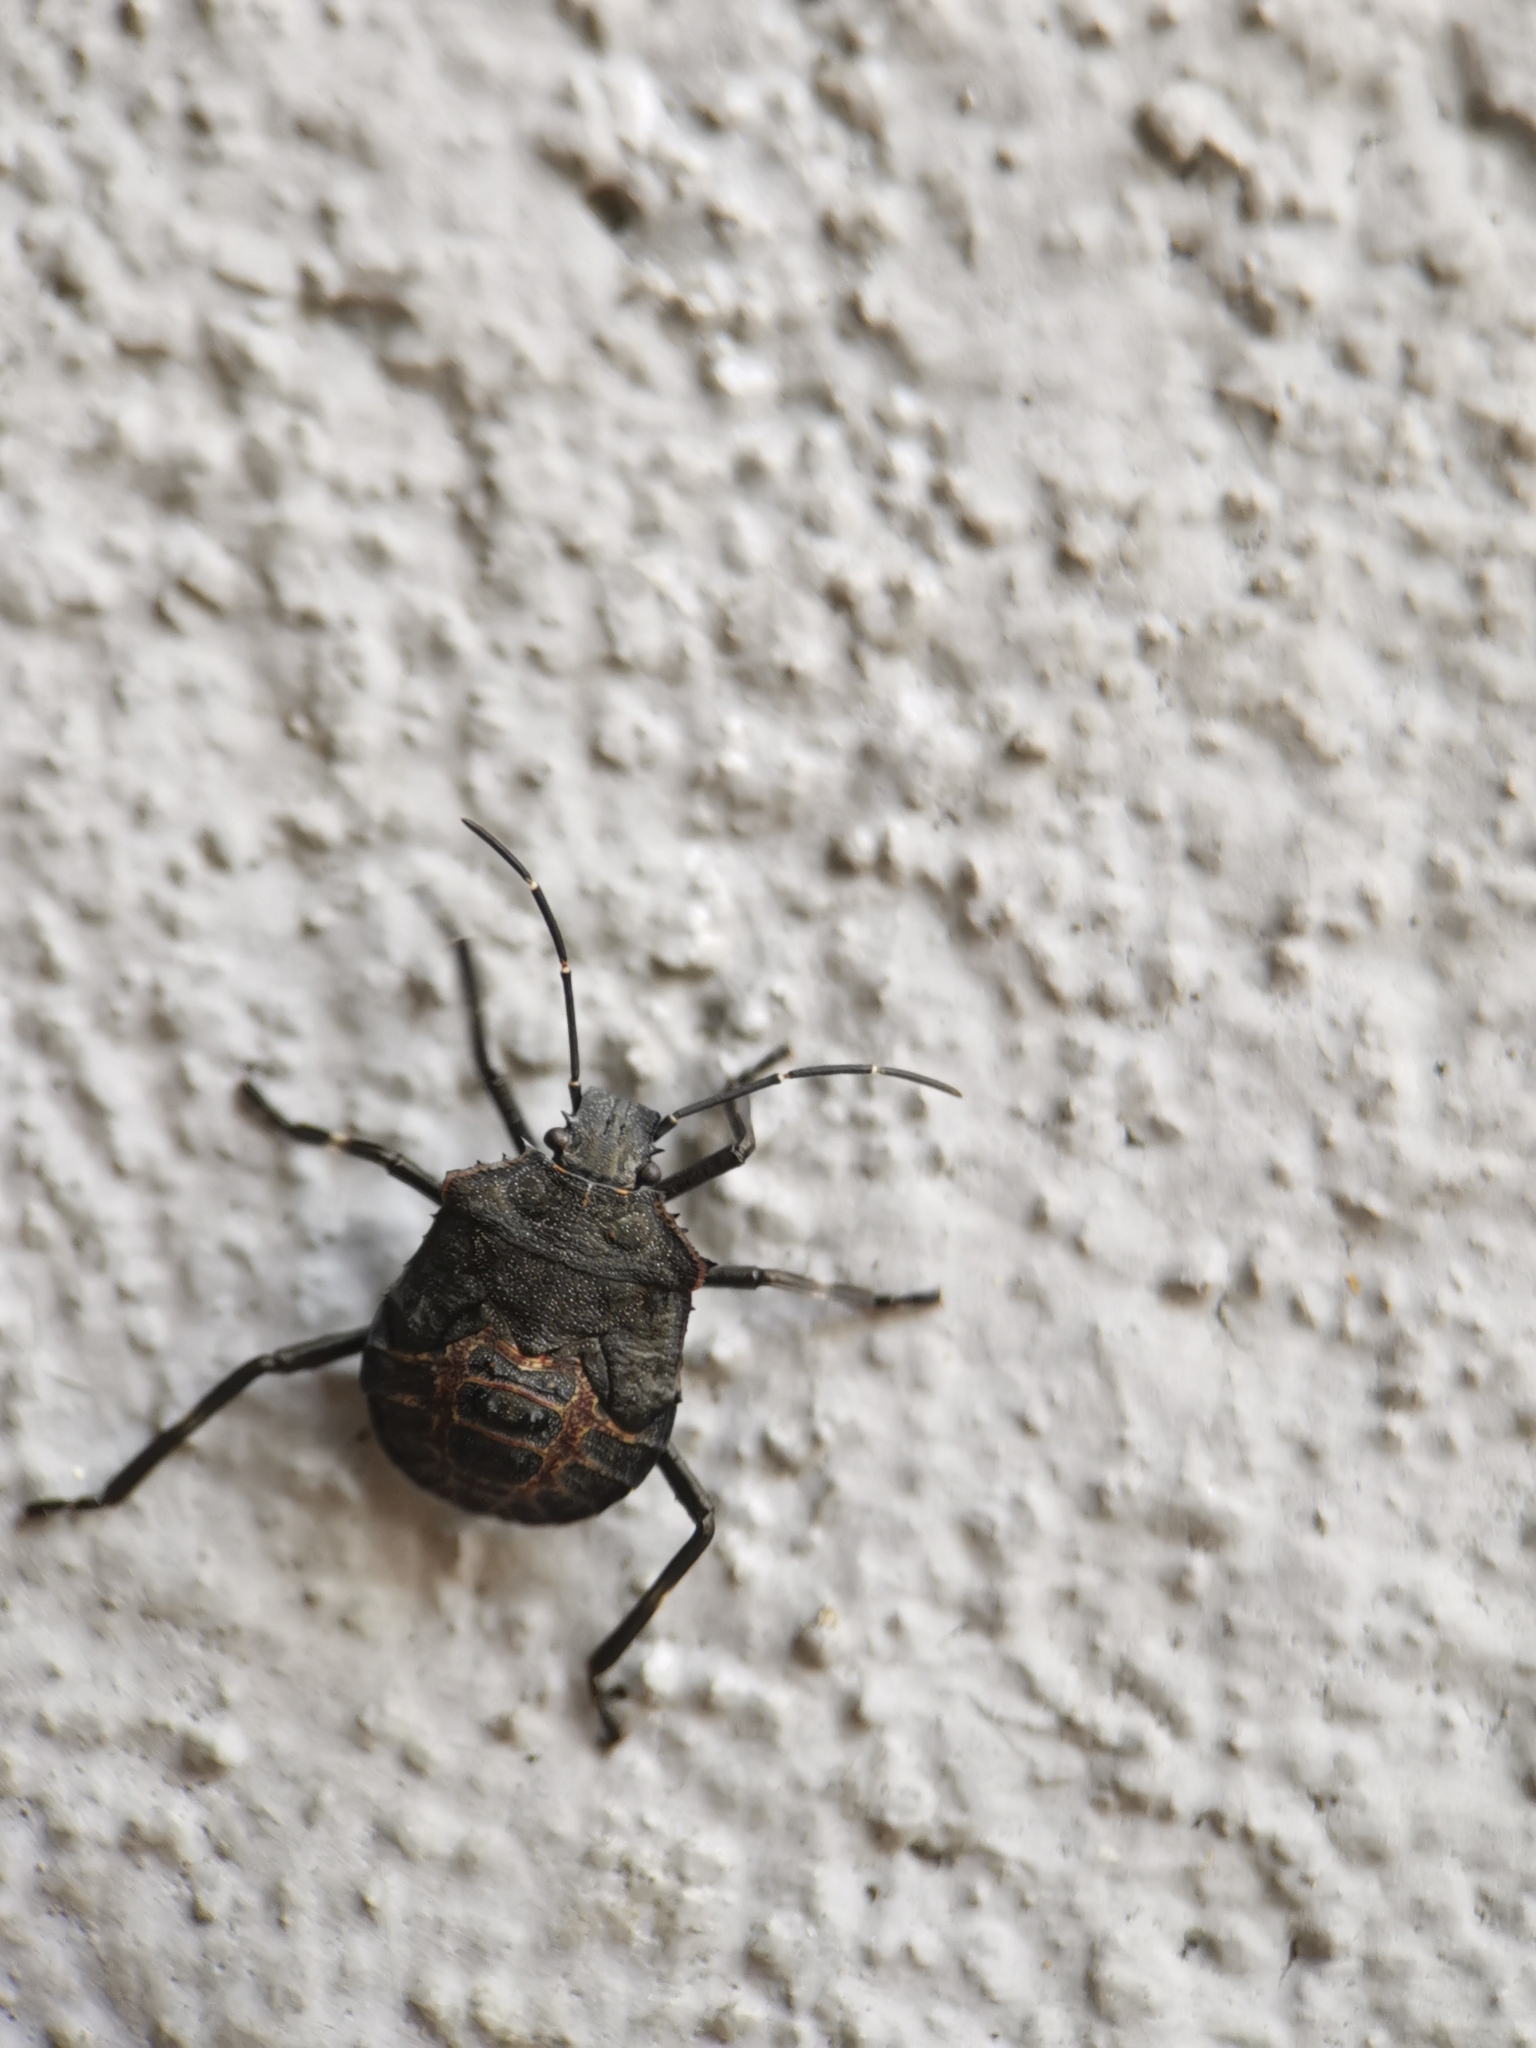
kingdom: Animalia
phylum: Arthropoda
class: Insecta
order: Hemiptera
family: Pentatomidae
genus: Halyomorpha
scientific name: Halyomorpha halys
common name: Brown marmorated stink bug
